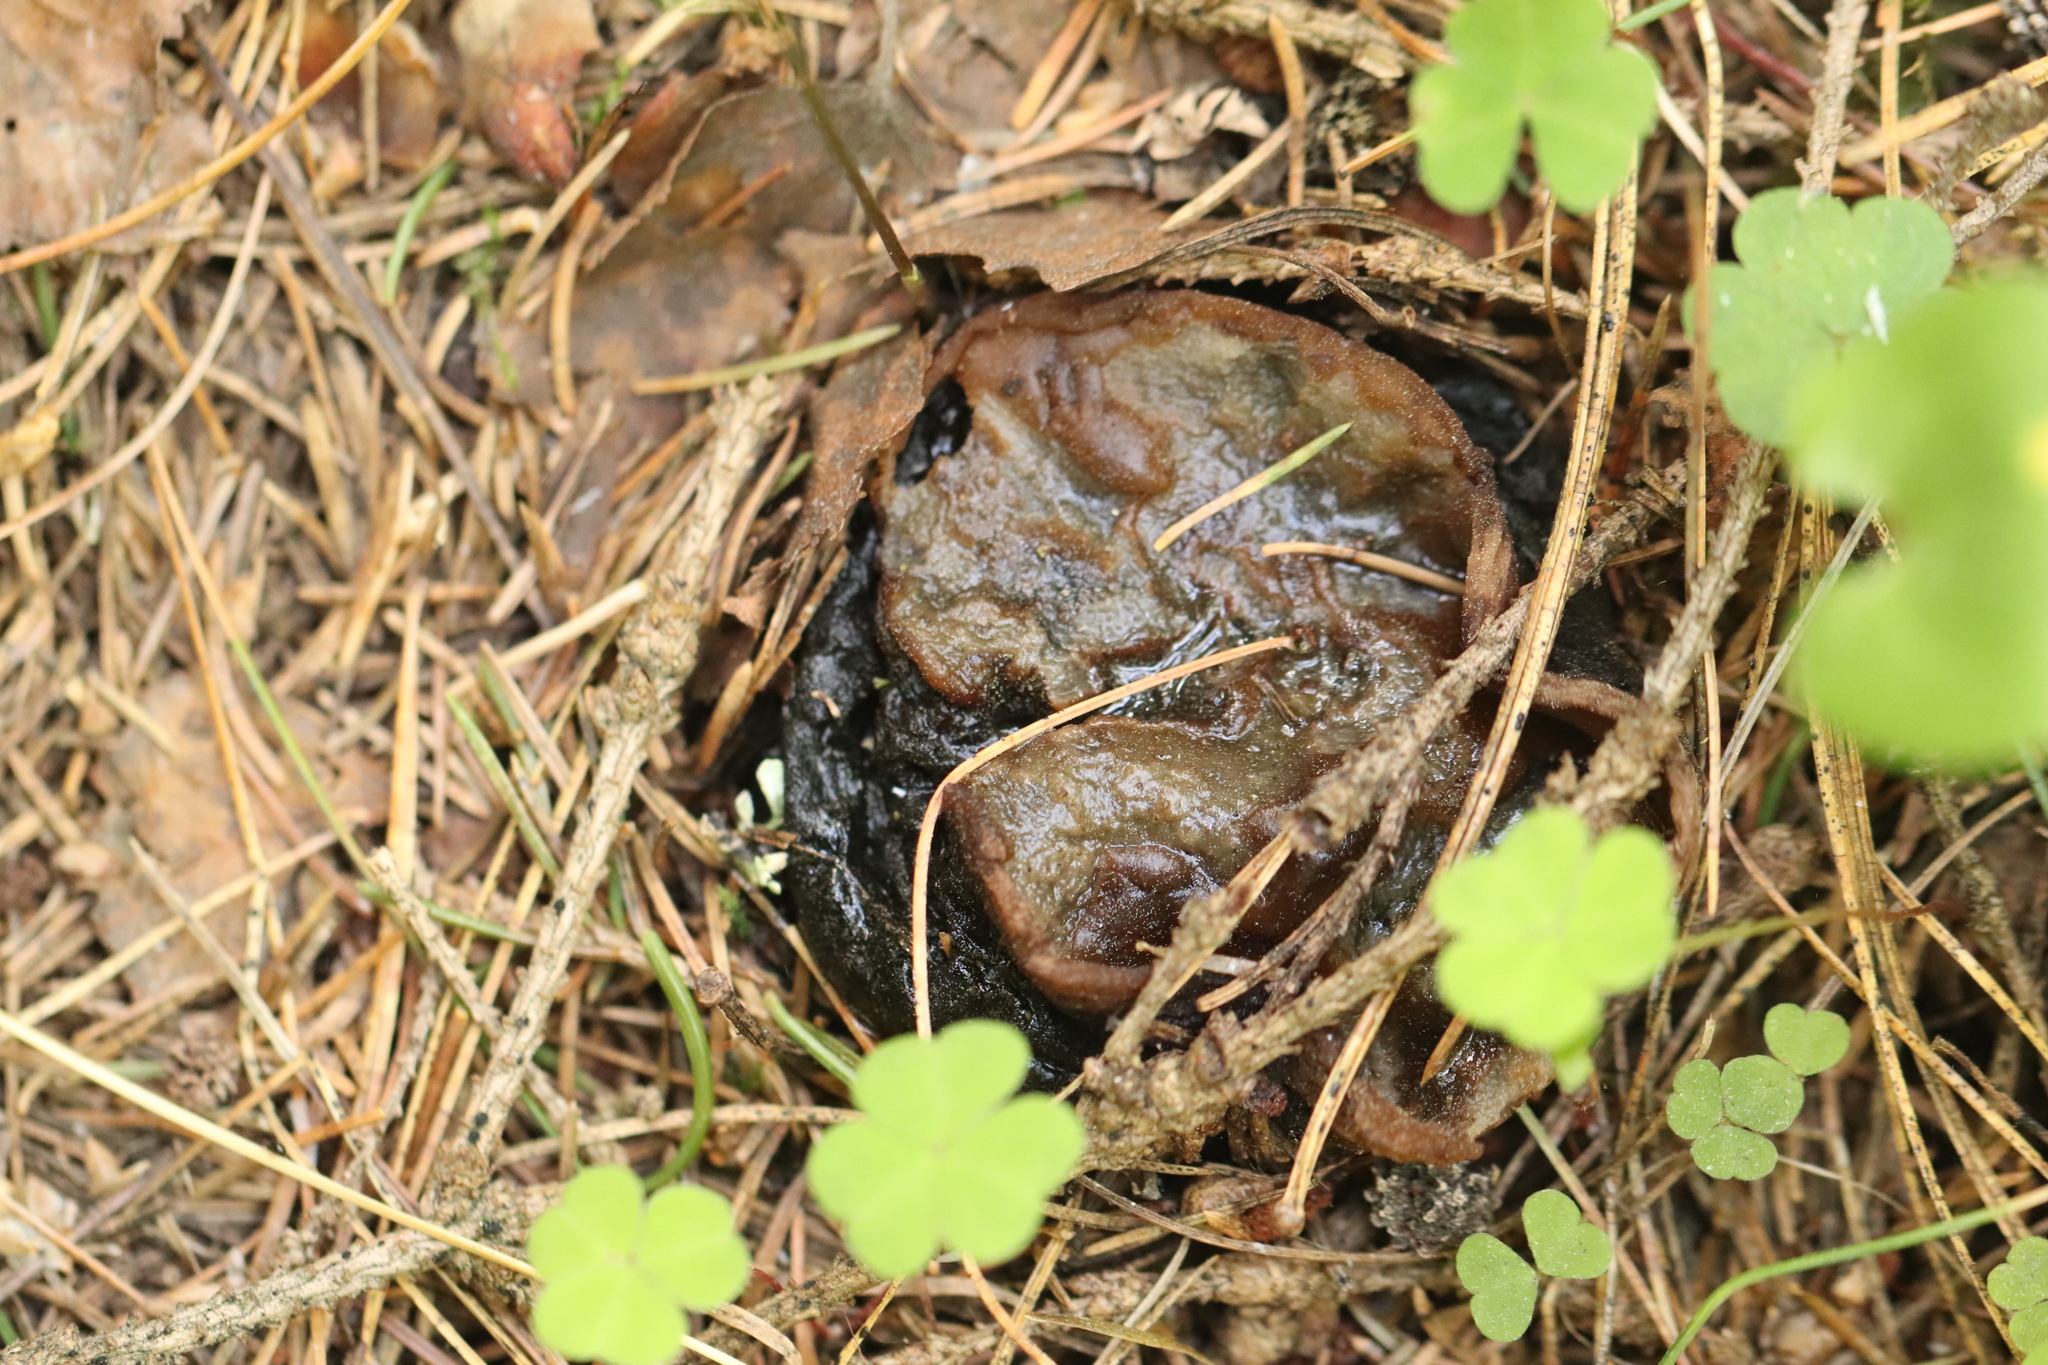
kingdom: Fungi
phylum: Ascomycota
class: Pezizomycetes
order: Pezizales
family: Sarcosomataceae
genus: Sarcosoma
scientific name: Sarcosoma globosum
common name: Charred-pancake cup
